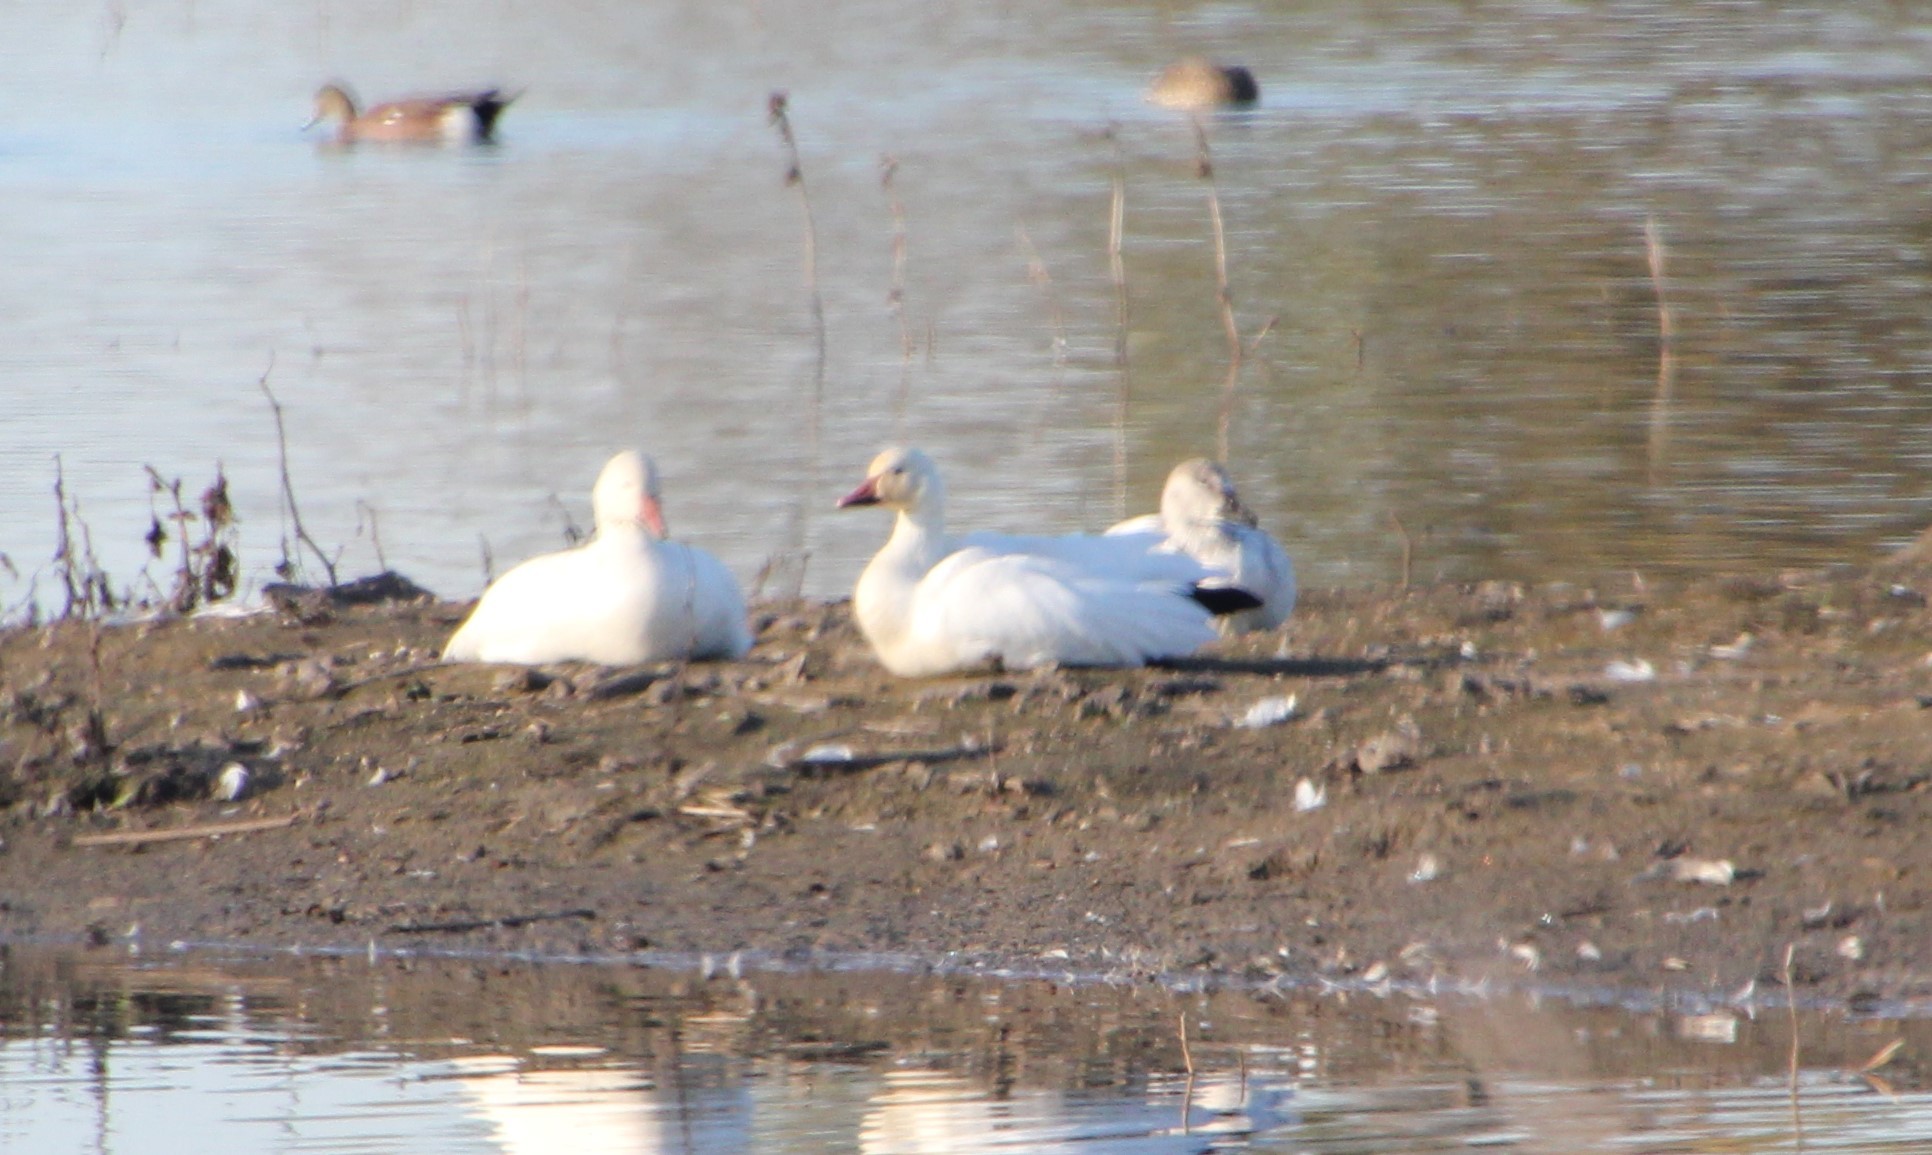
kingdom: Animalia
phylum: Chordata
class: Aves
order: Anseriformes
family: Anatidae
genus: Anser
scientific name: Anser caerulescens
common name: Snow goose
